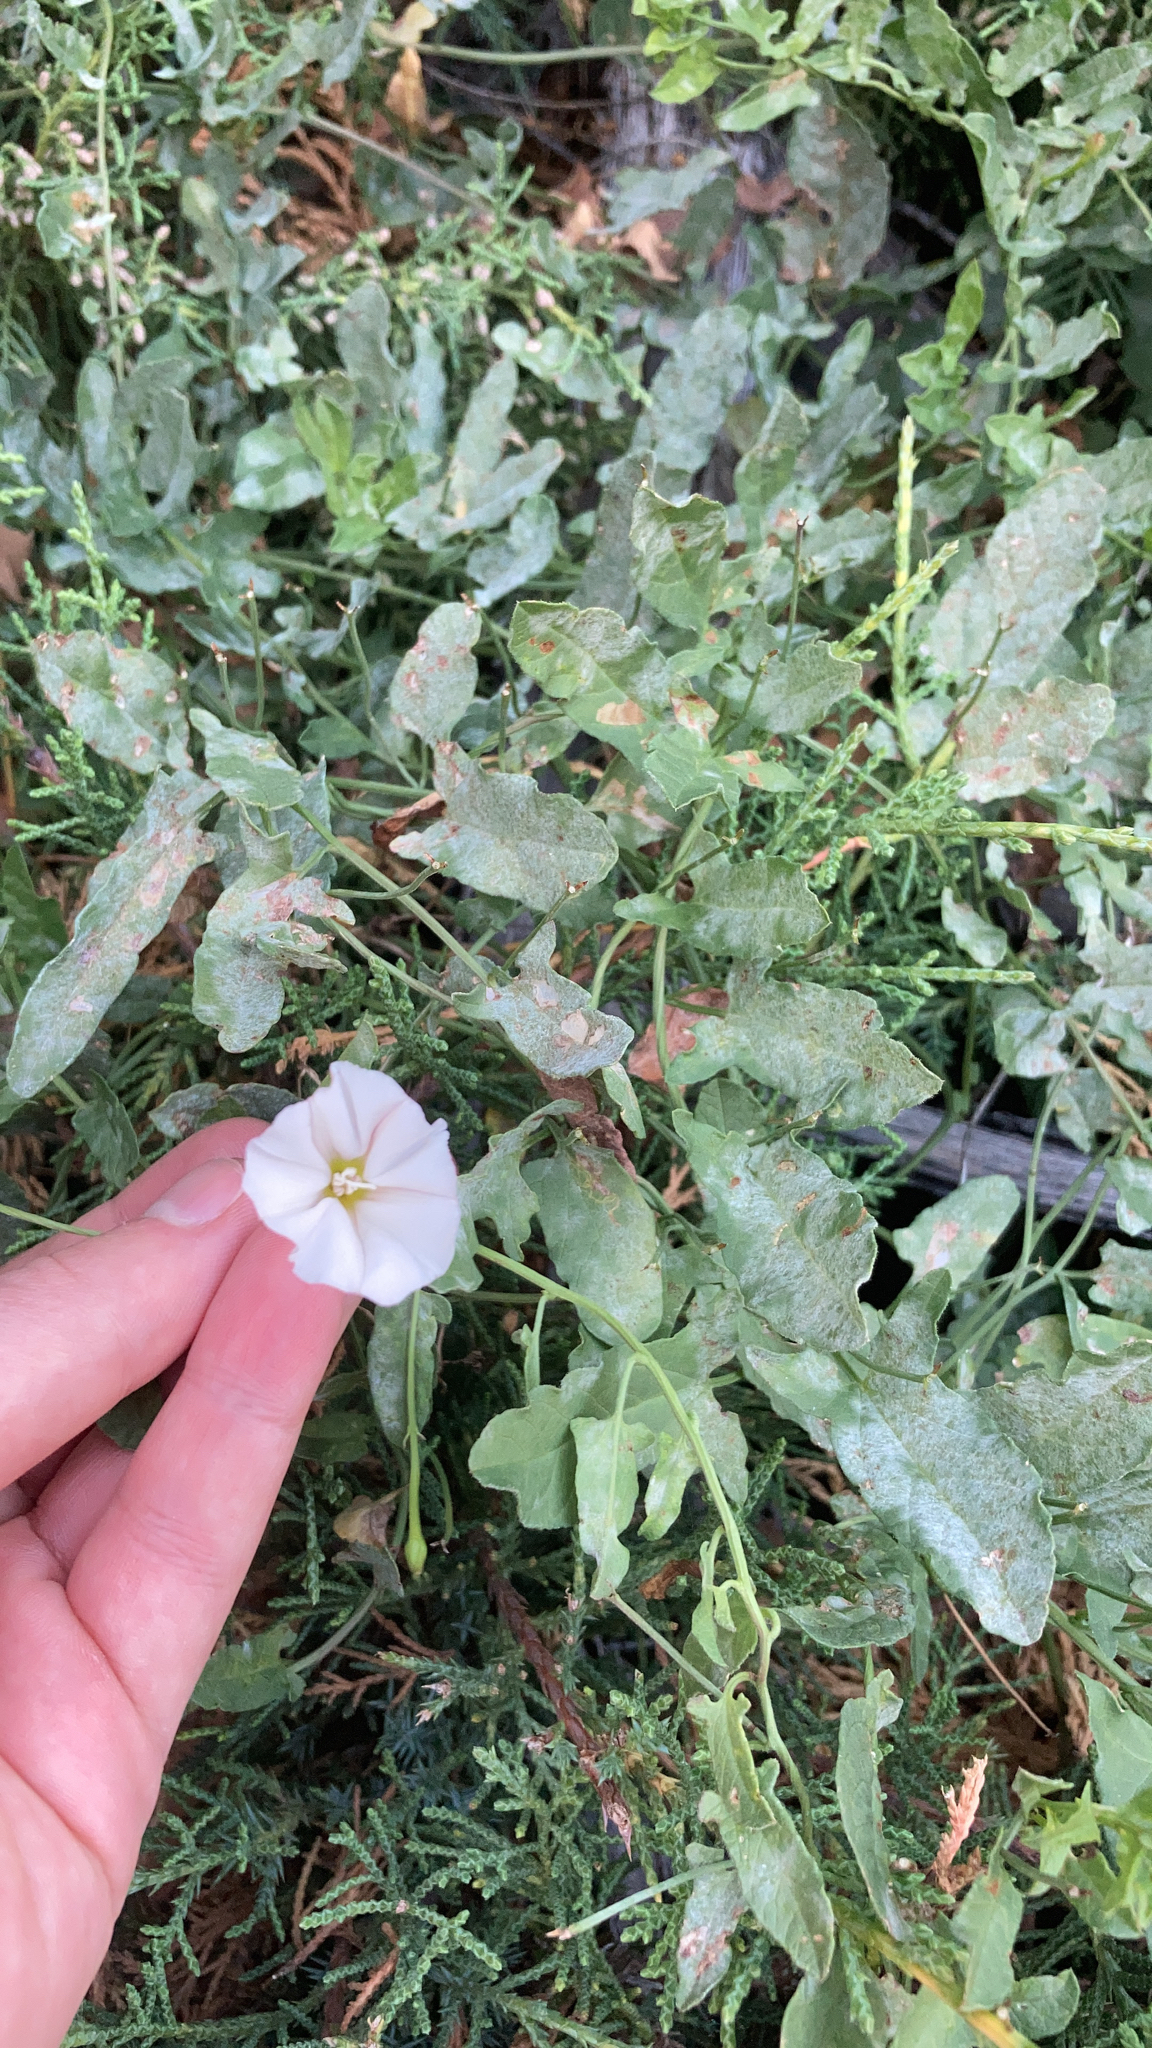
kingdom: Plantae
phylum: Tracheophyta
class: Magnoliopsida
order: Solanales
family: Convolvulaceae
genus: Convolvulus
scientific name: Convolvulus arvensis
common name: Field bindweed
